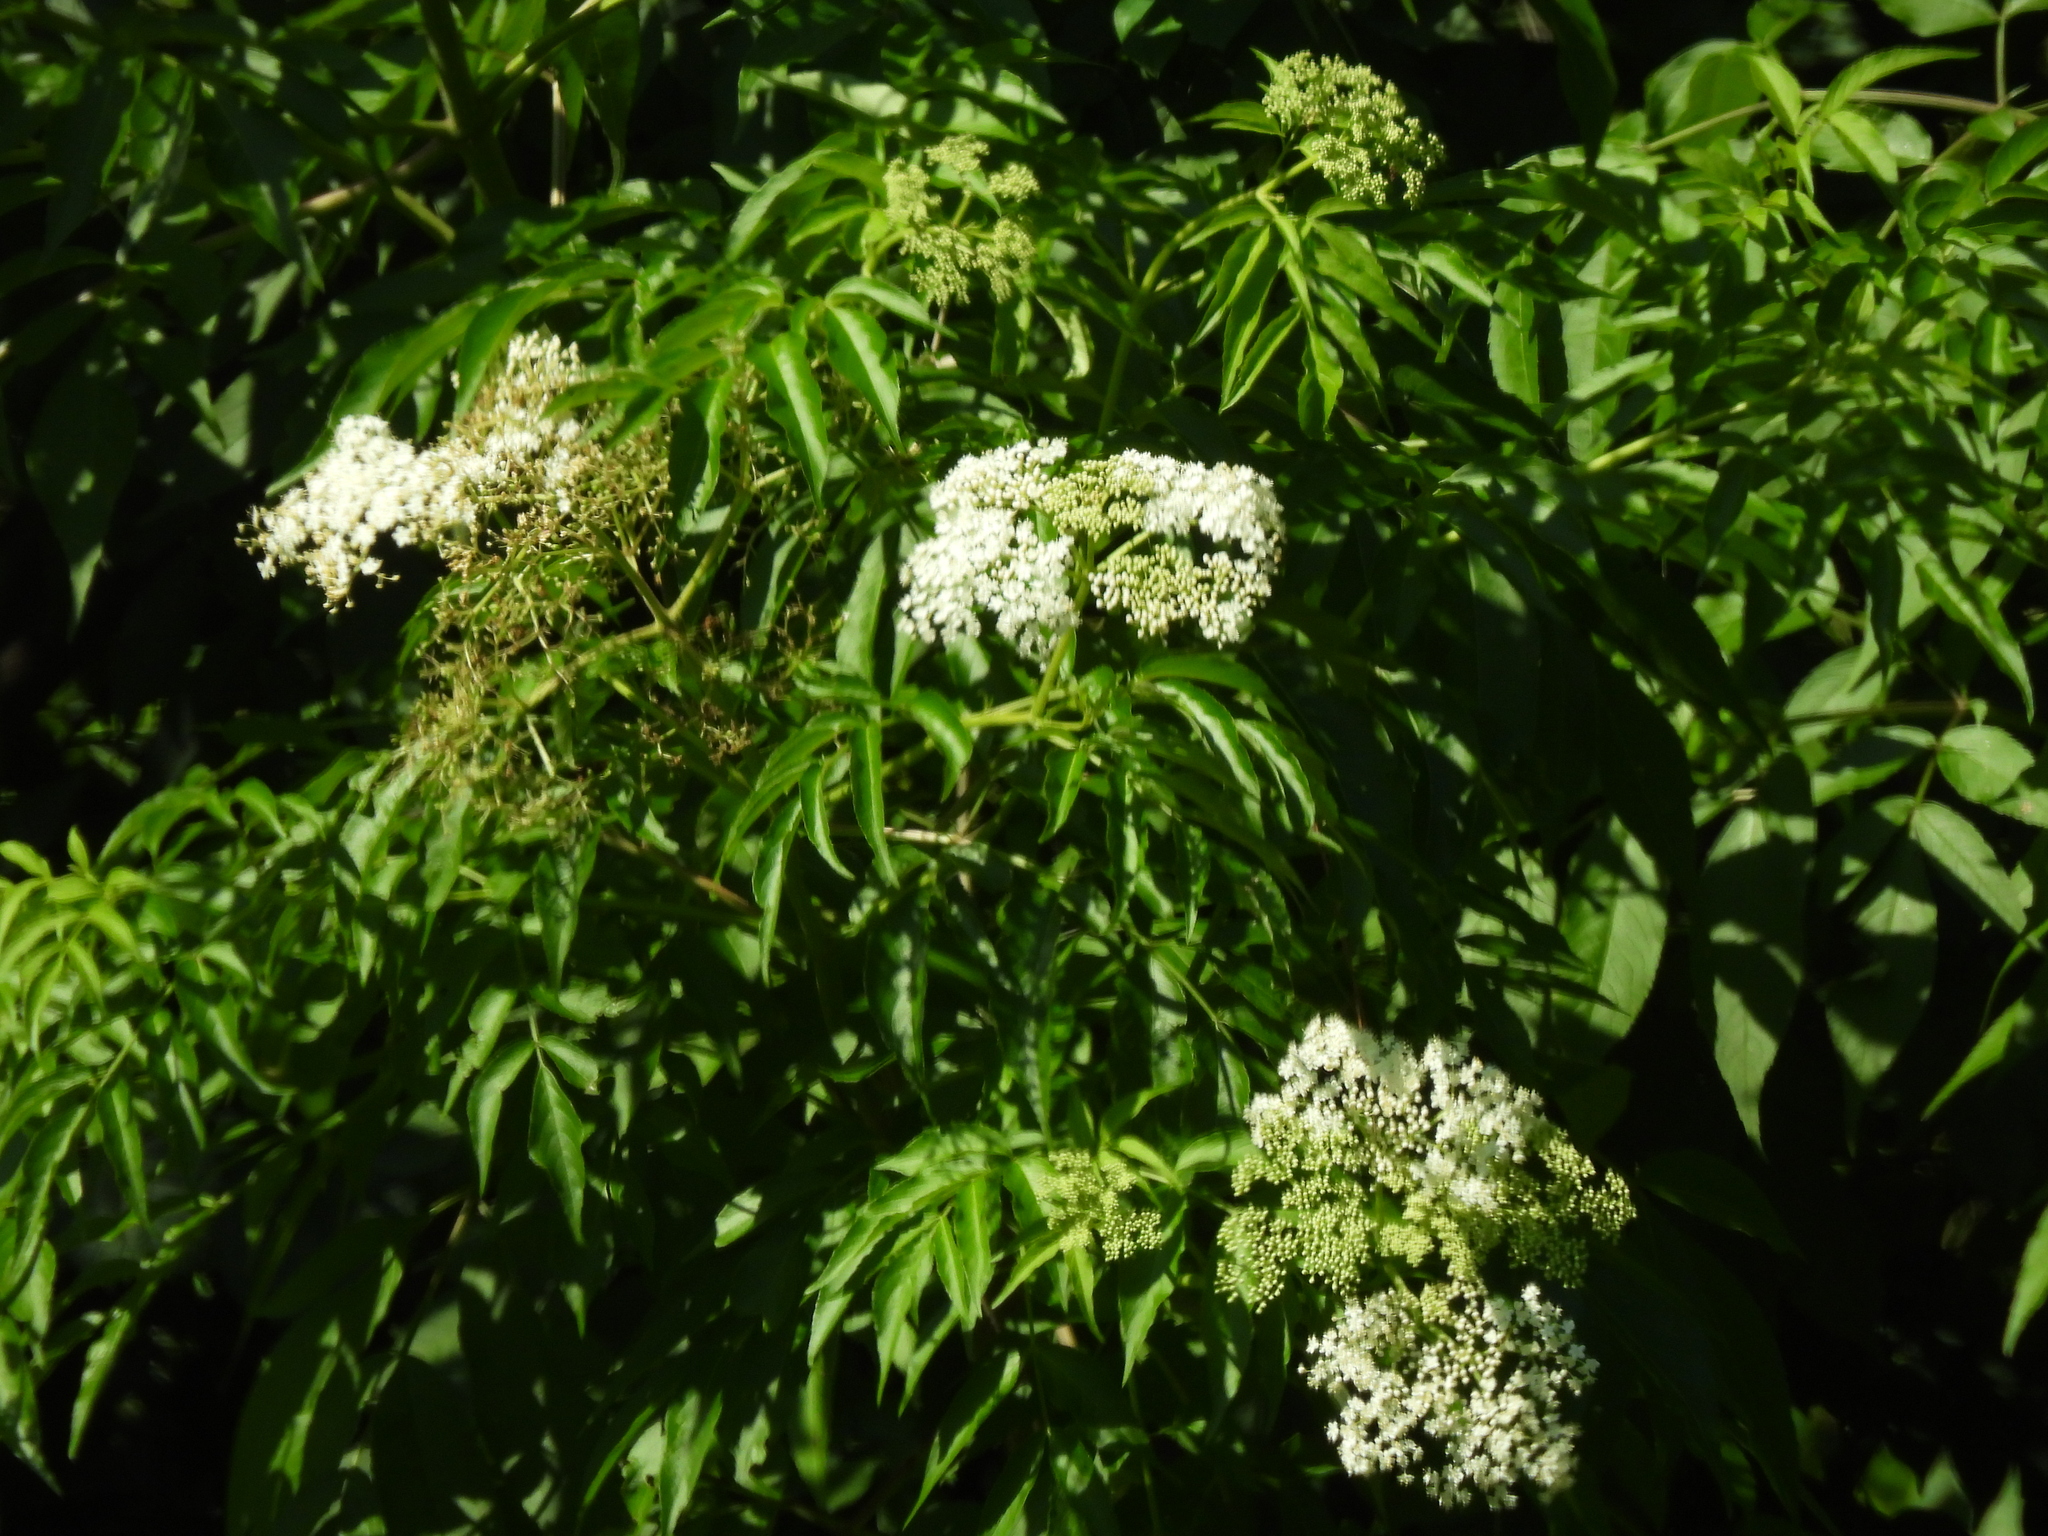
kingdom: Plantae
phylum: Tracheophyta
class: Magnoliopsida
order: Dipsacales
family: Viburnaceae
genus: Sambucus
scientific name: Sambucus canadensis
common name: American elder
